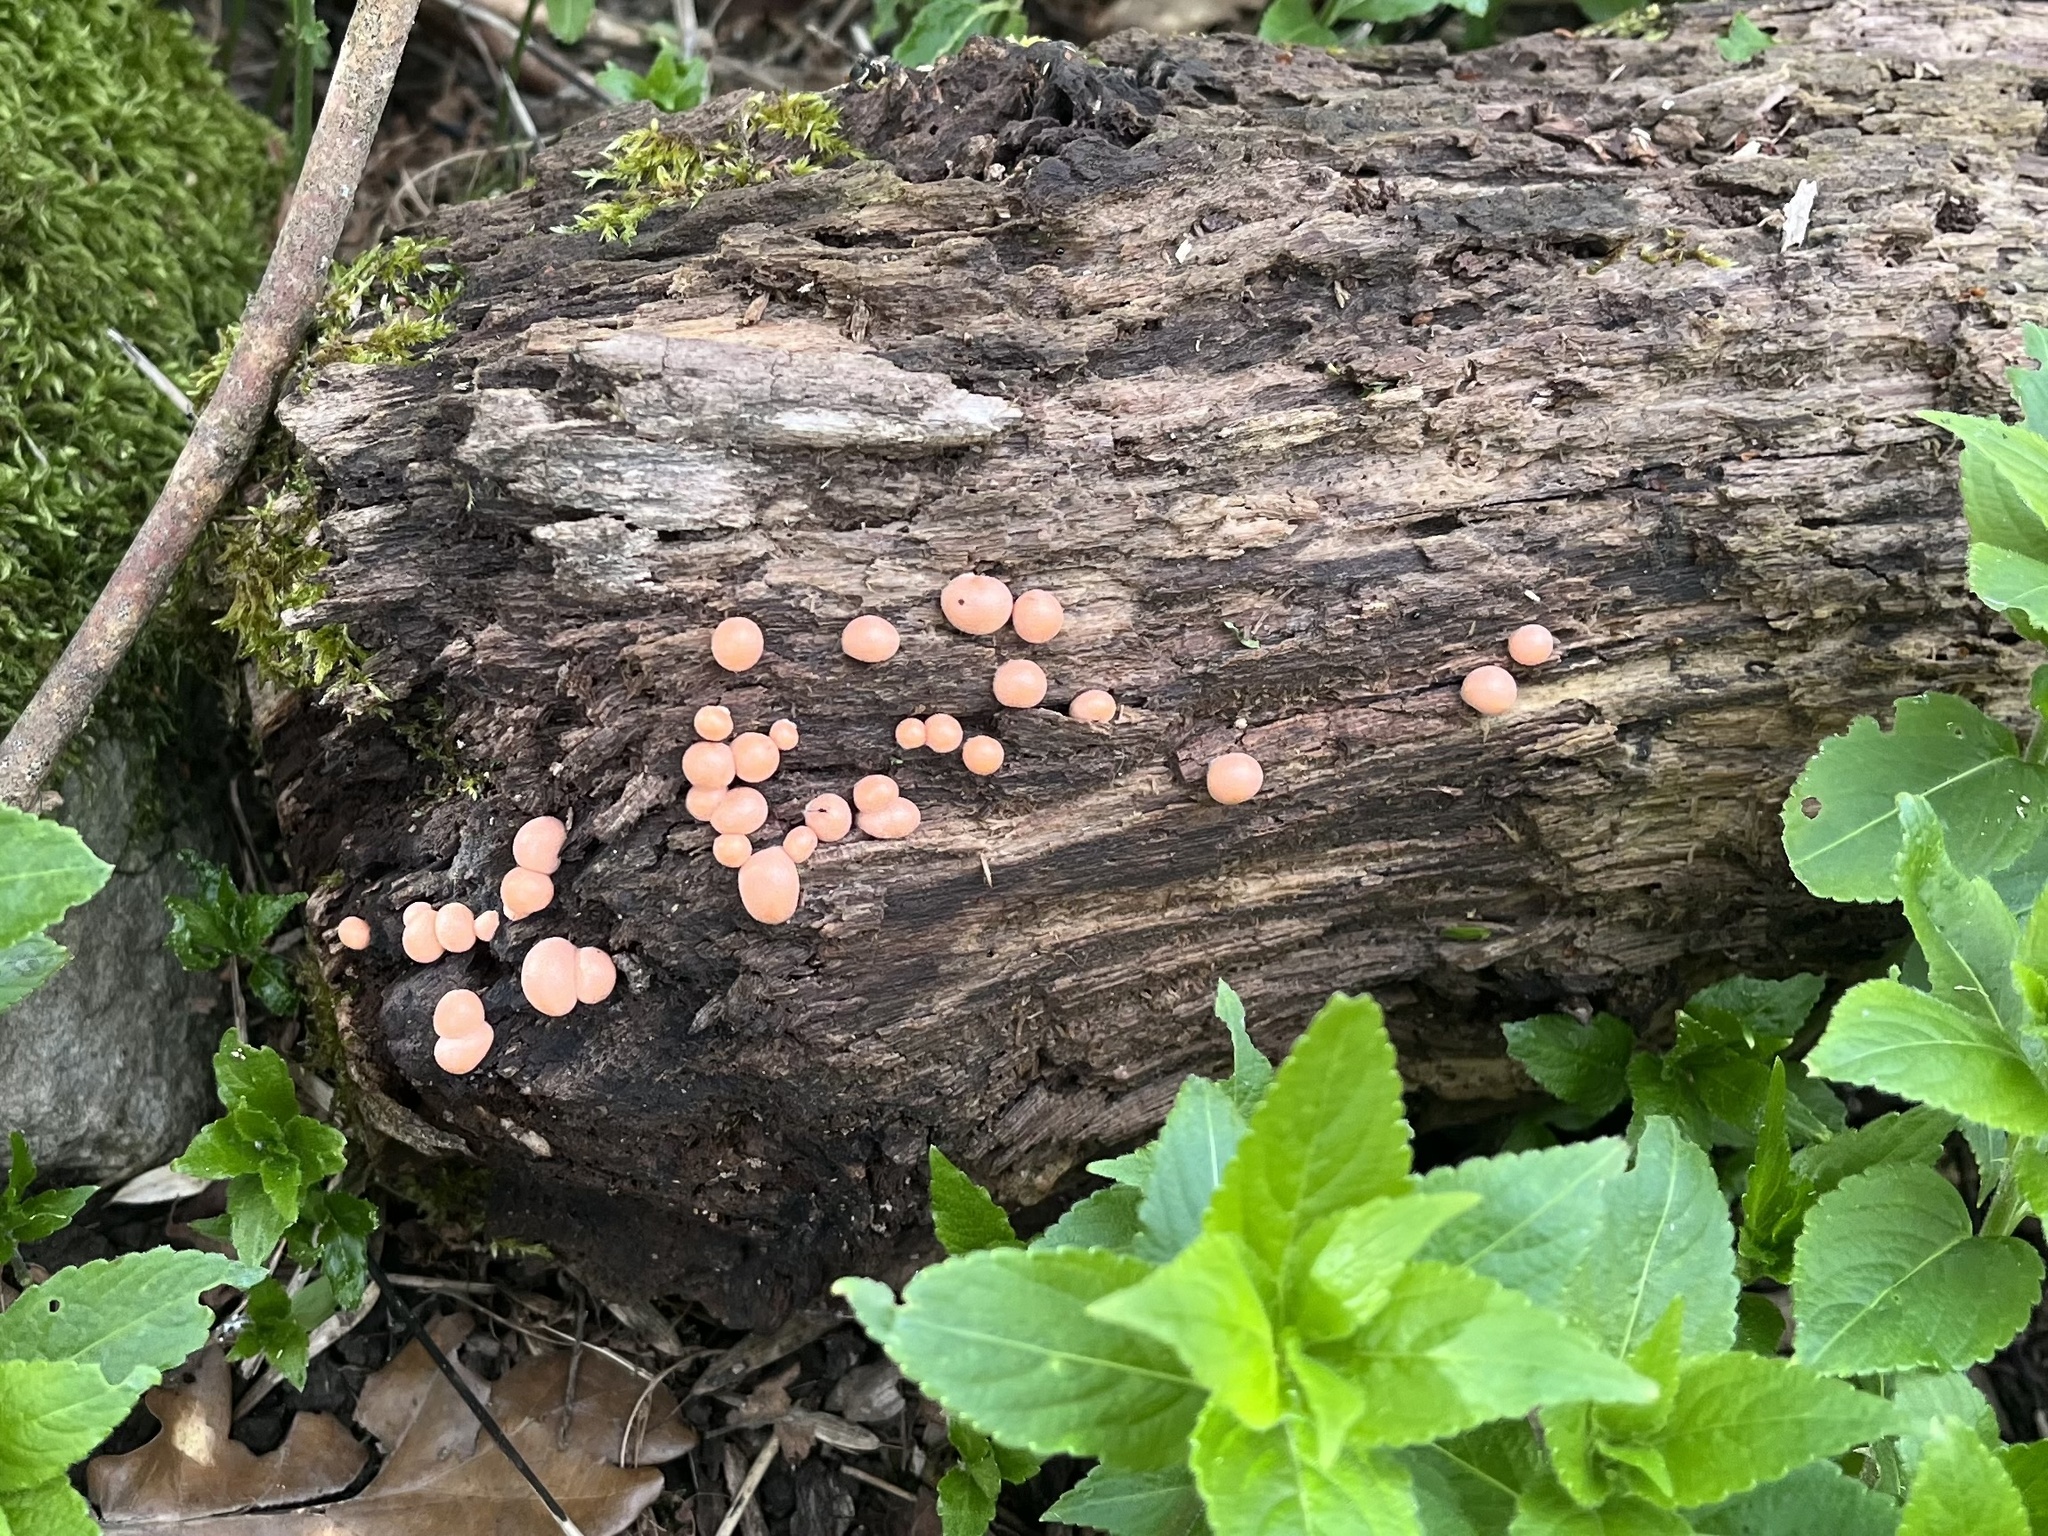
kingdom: Protozoa
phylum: Mycetozoa
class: Myxomycetes
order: Cribrariales
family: Tubiferaceae
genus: Lycogala
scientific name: Lycogala epidendrum
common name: Wolf's milk
